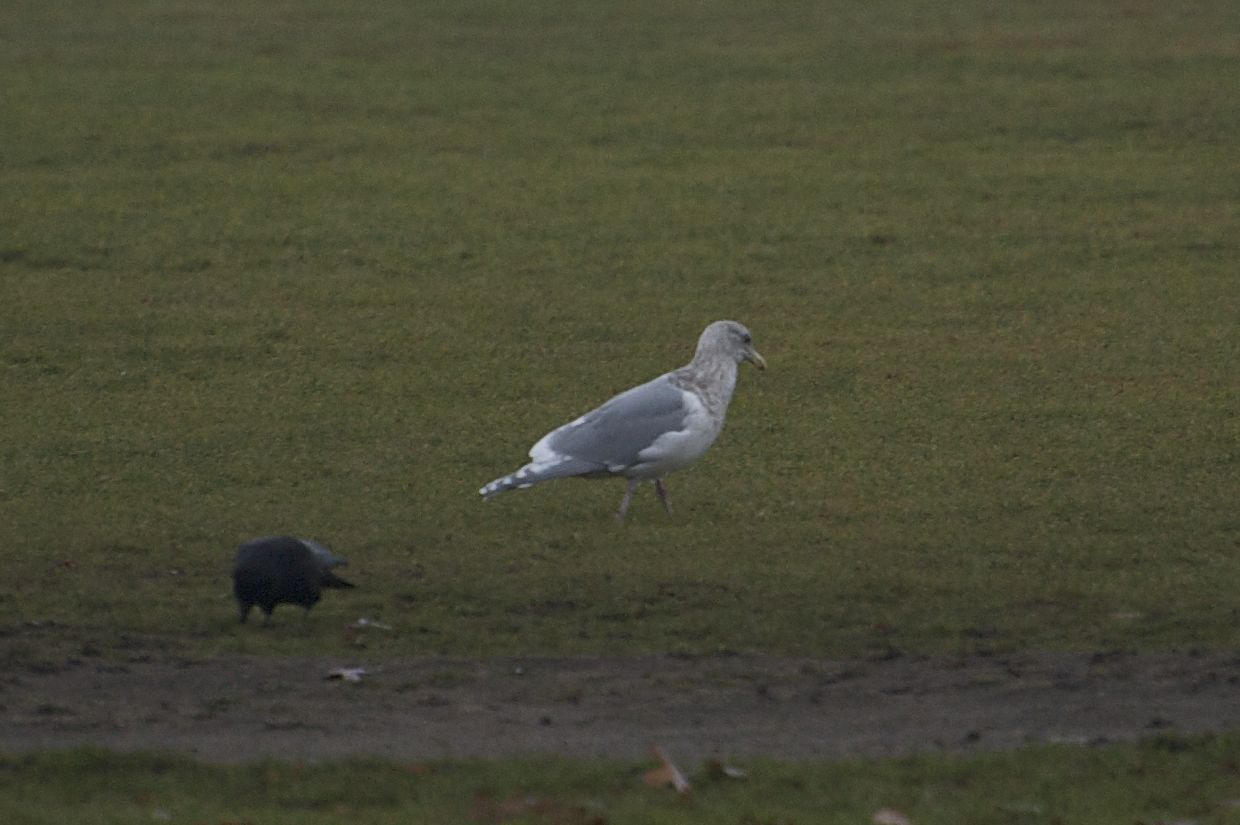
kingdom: Animalia
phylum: Chordata
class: Aves
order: Charadriiformes
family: Laridae
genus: Larus
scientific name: Larus glaucescens
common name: Glaucous-winged gull
